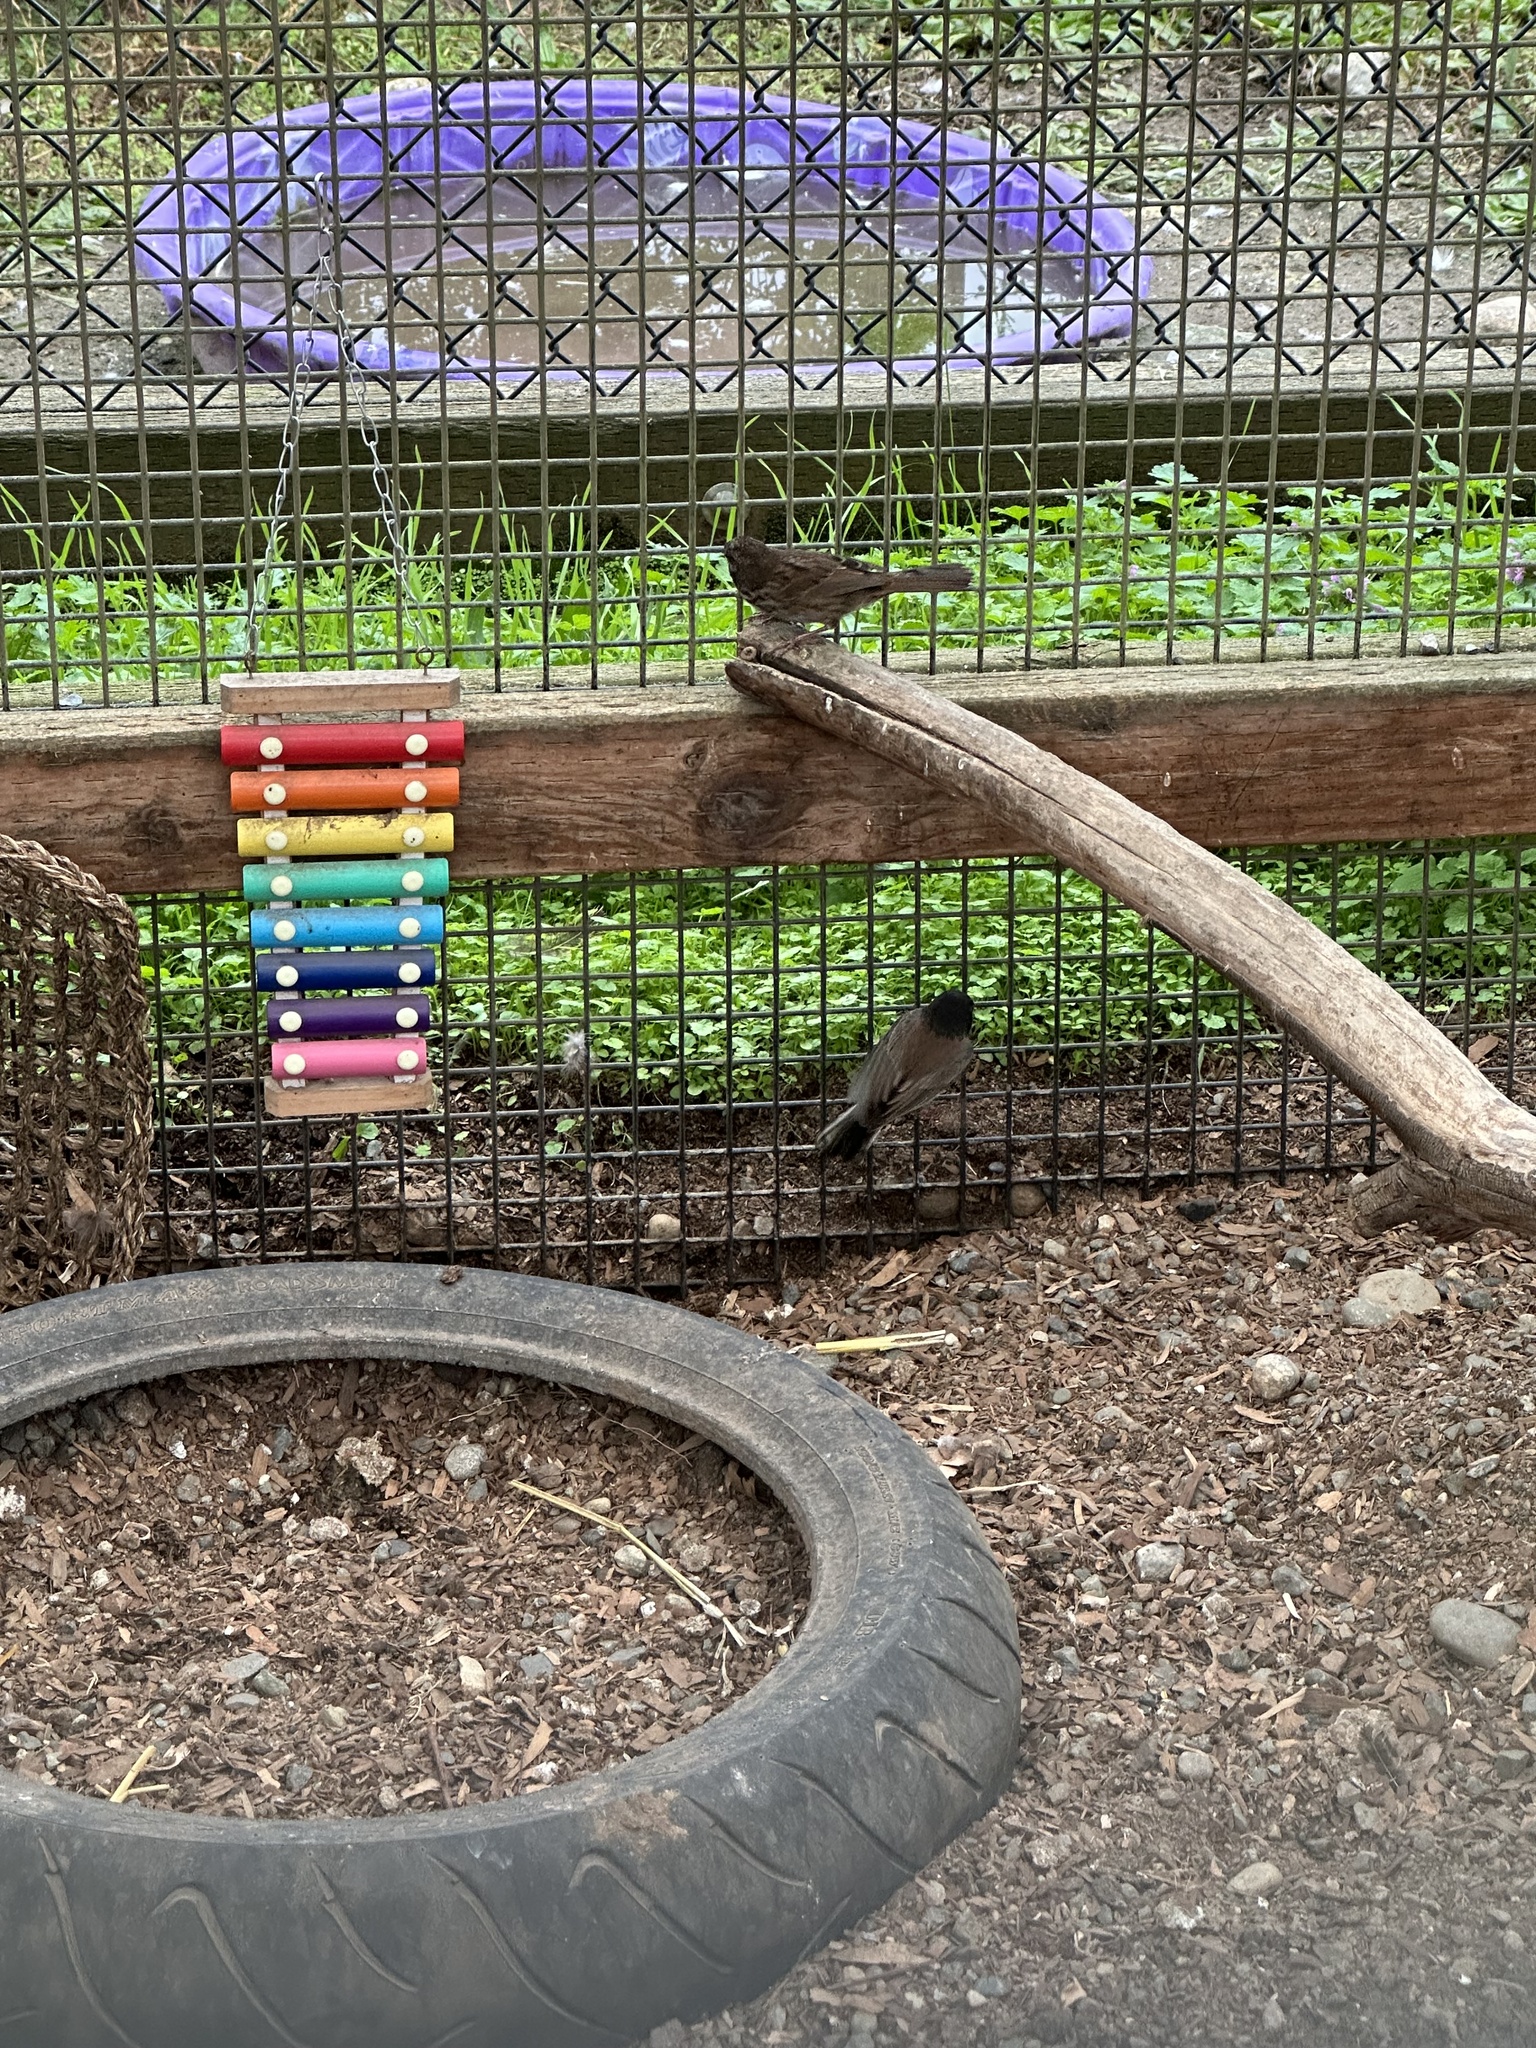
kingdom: Animalia
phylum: Chordata
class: Aves
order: Passeriformes
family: Passerellidae
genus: Junco
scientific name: Junco hyemalis
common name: Dark-eyed junco
